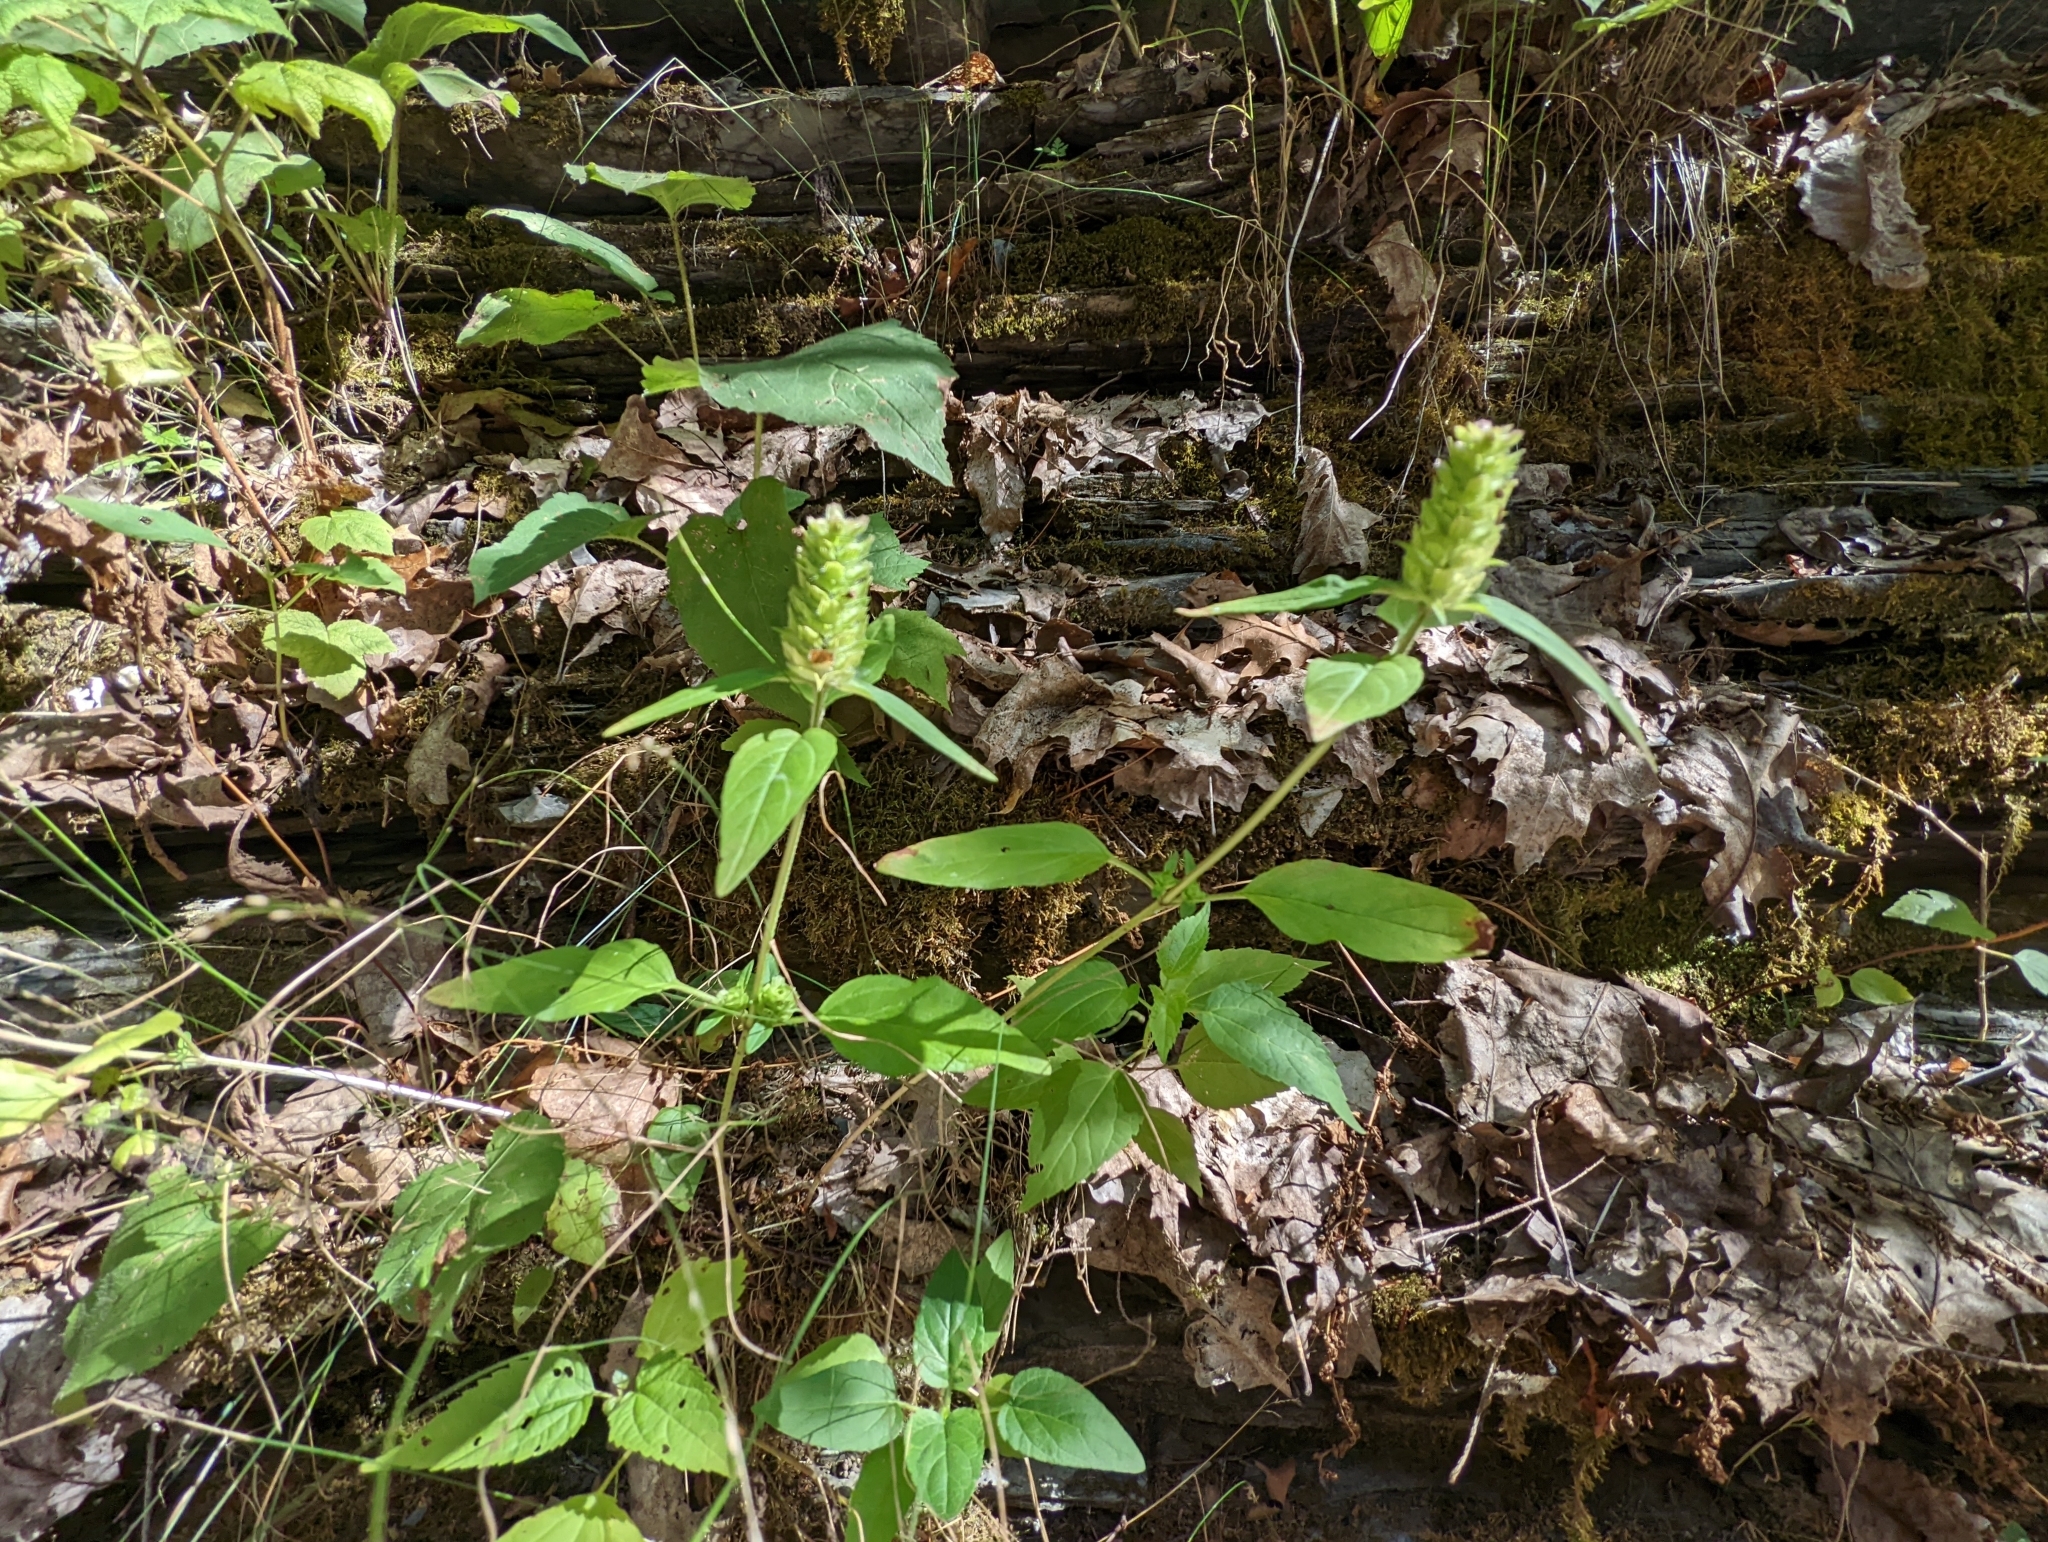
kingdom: Plantae
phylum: Tracheophyta
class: Magnoliopsida
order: Lamiales
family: Lamiaceae
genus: Prunella
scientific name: Prunella vulgaris
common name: Heal-all
